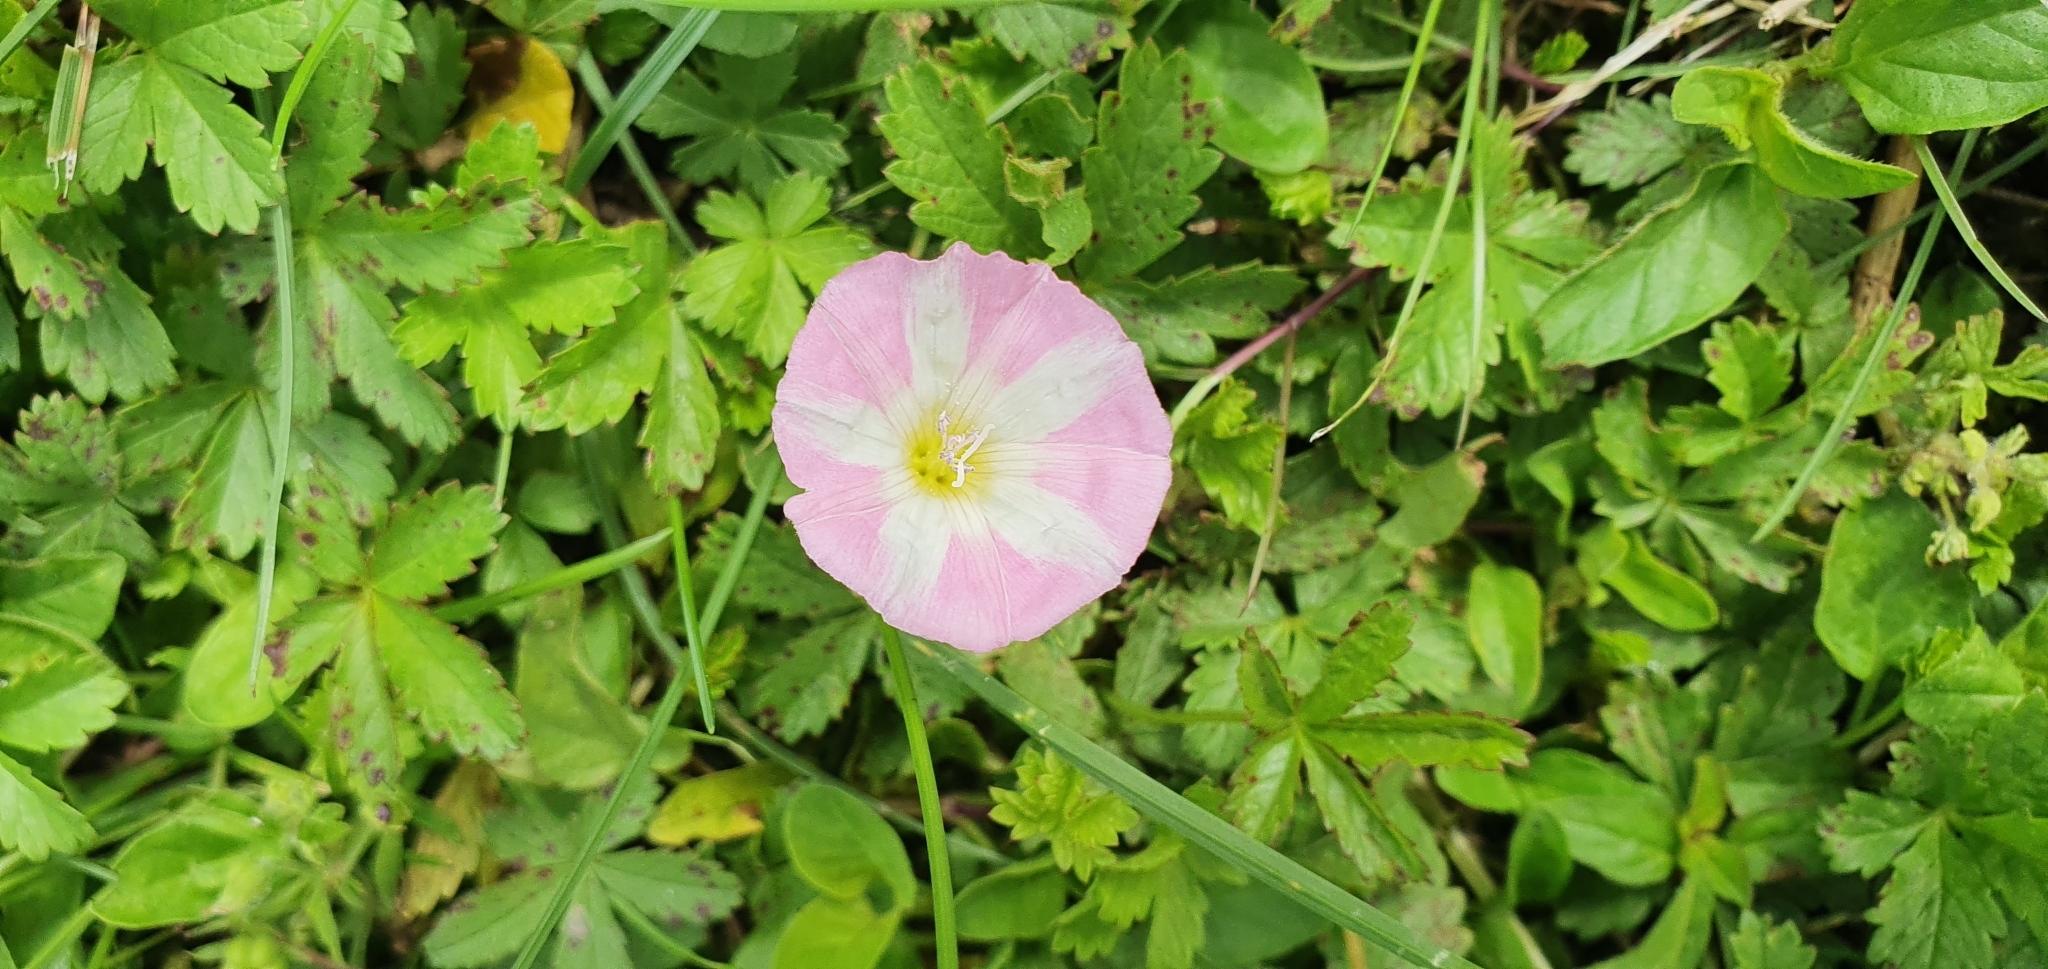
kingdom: Plantae
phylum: Tracheophyta
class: Magnoliopsida
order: Solanales
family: Convolvulaceae
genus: Convolvulus
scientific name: Convolvulus arvensis
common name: Field bindweed
